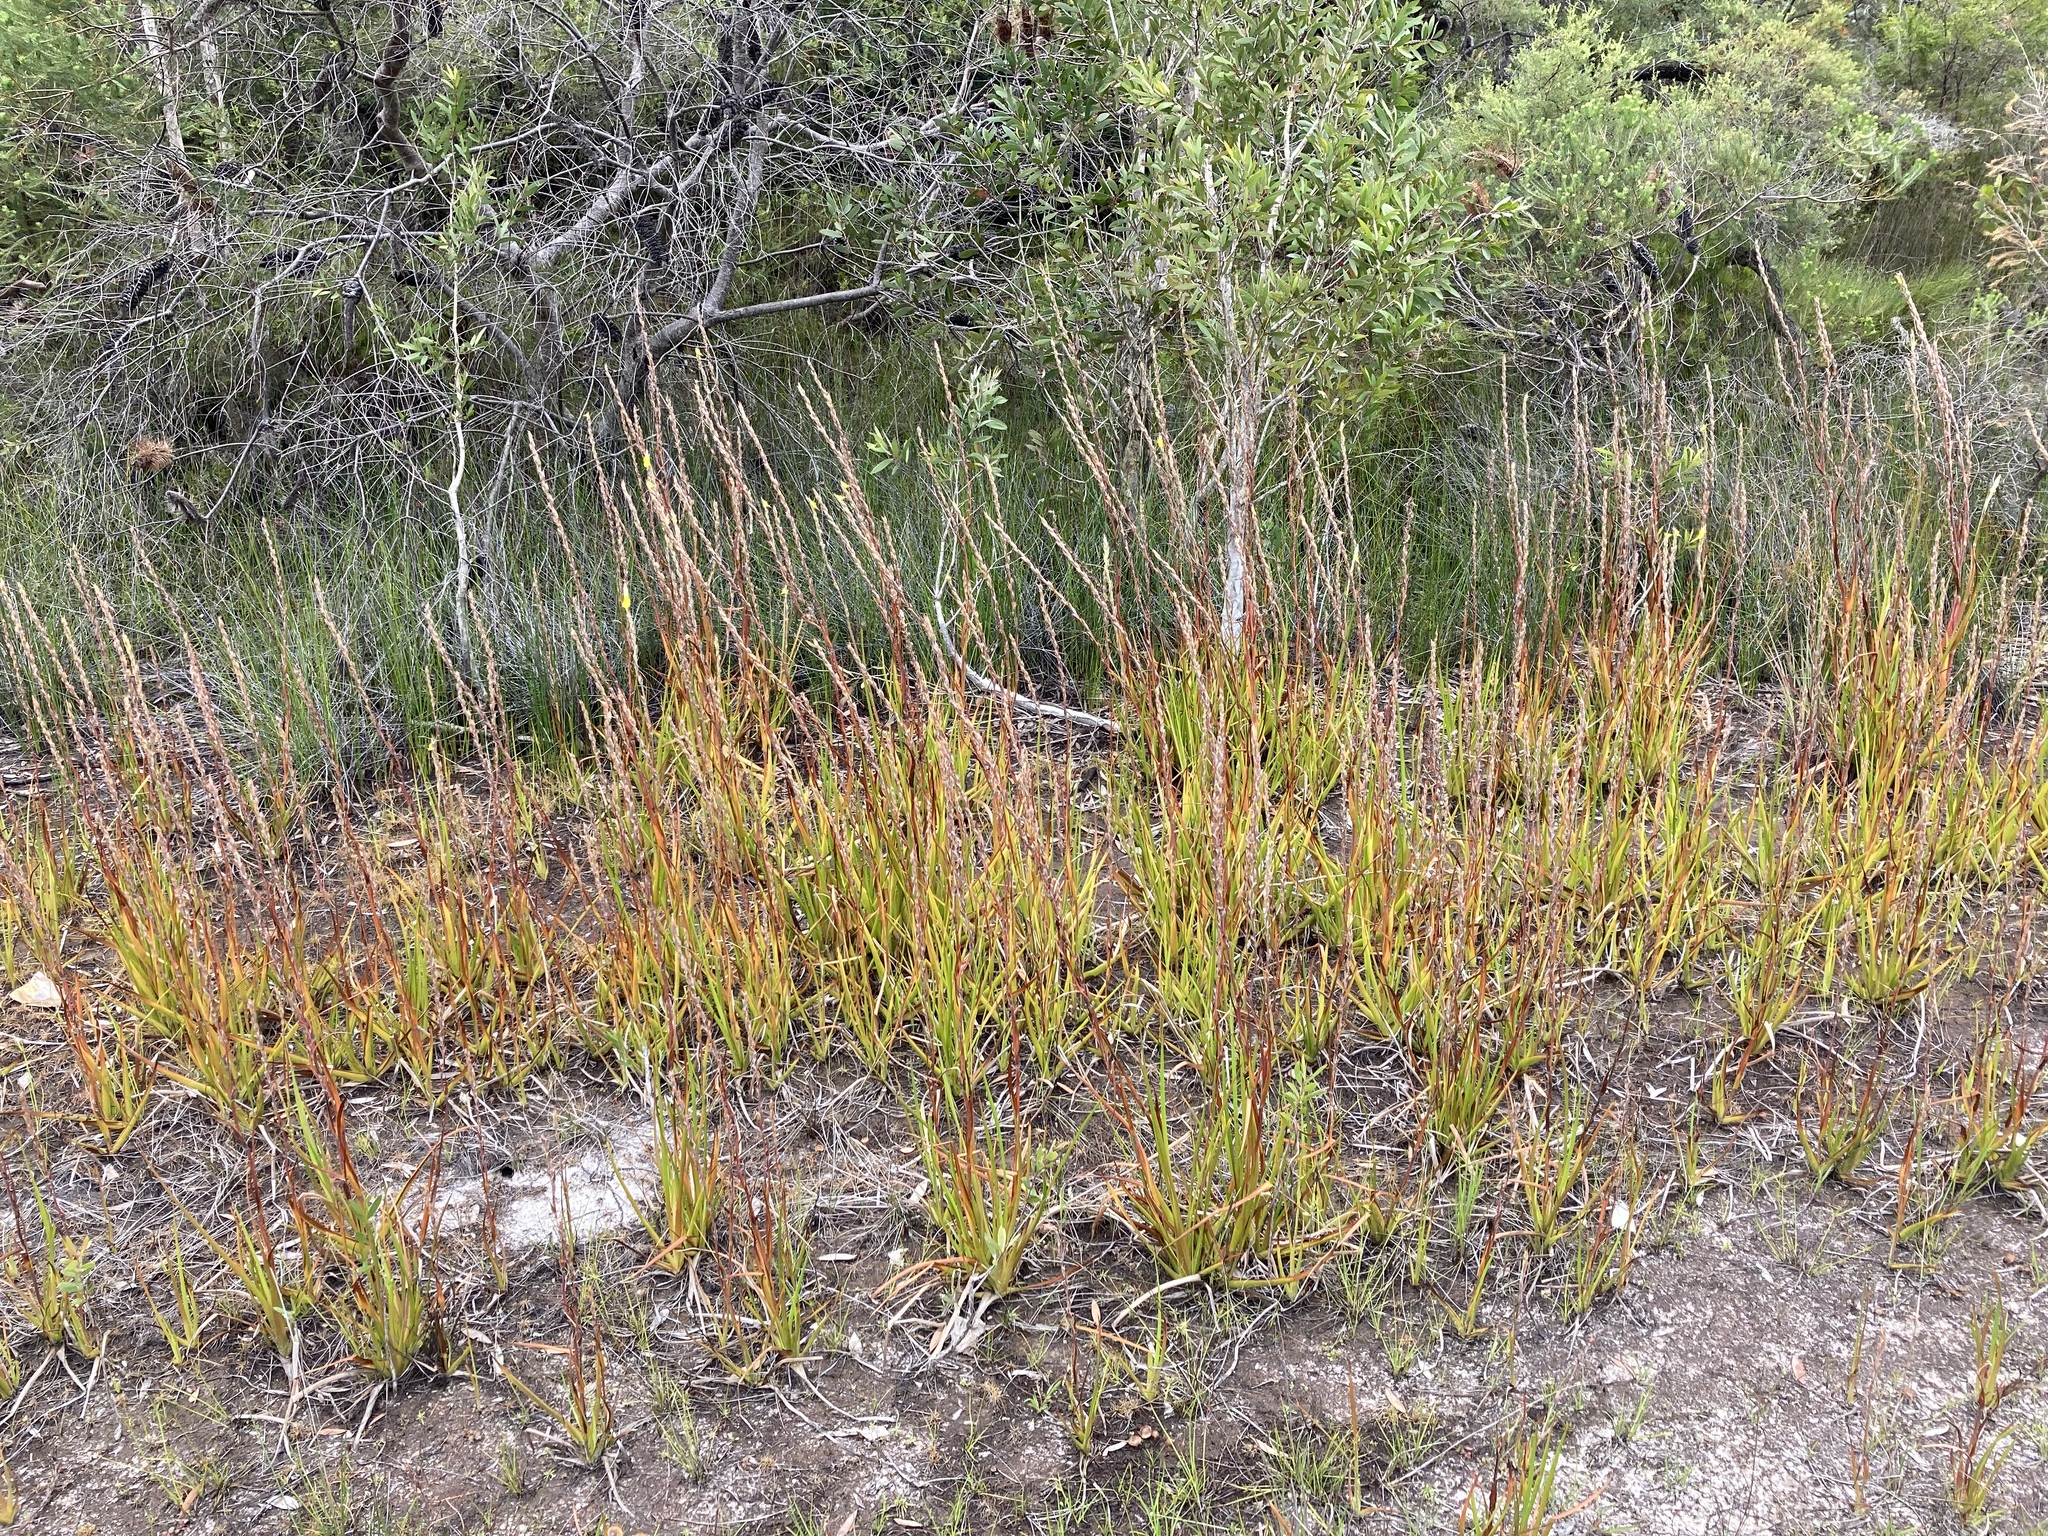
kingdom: Plantae
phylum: Tracheophyta
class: Liliopsida
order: Commelinales
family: Philydraceae
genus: Philydrum
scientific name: Philydrum lanuginosum
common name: Woolly frog's mouth
